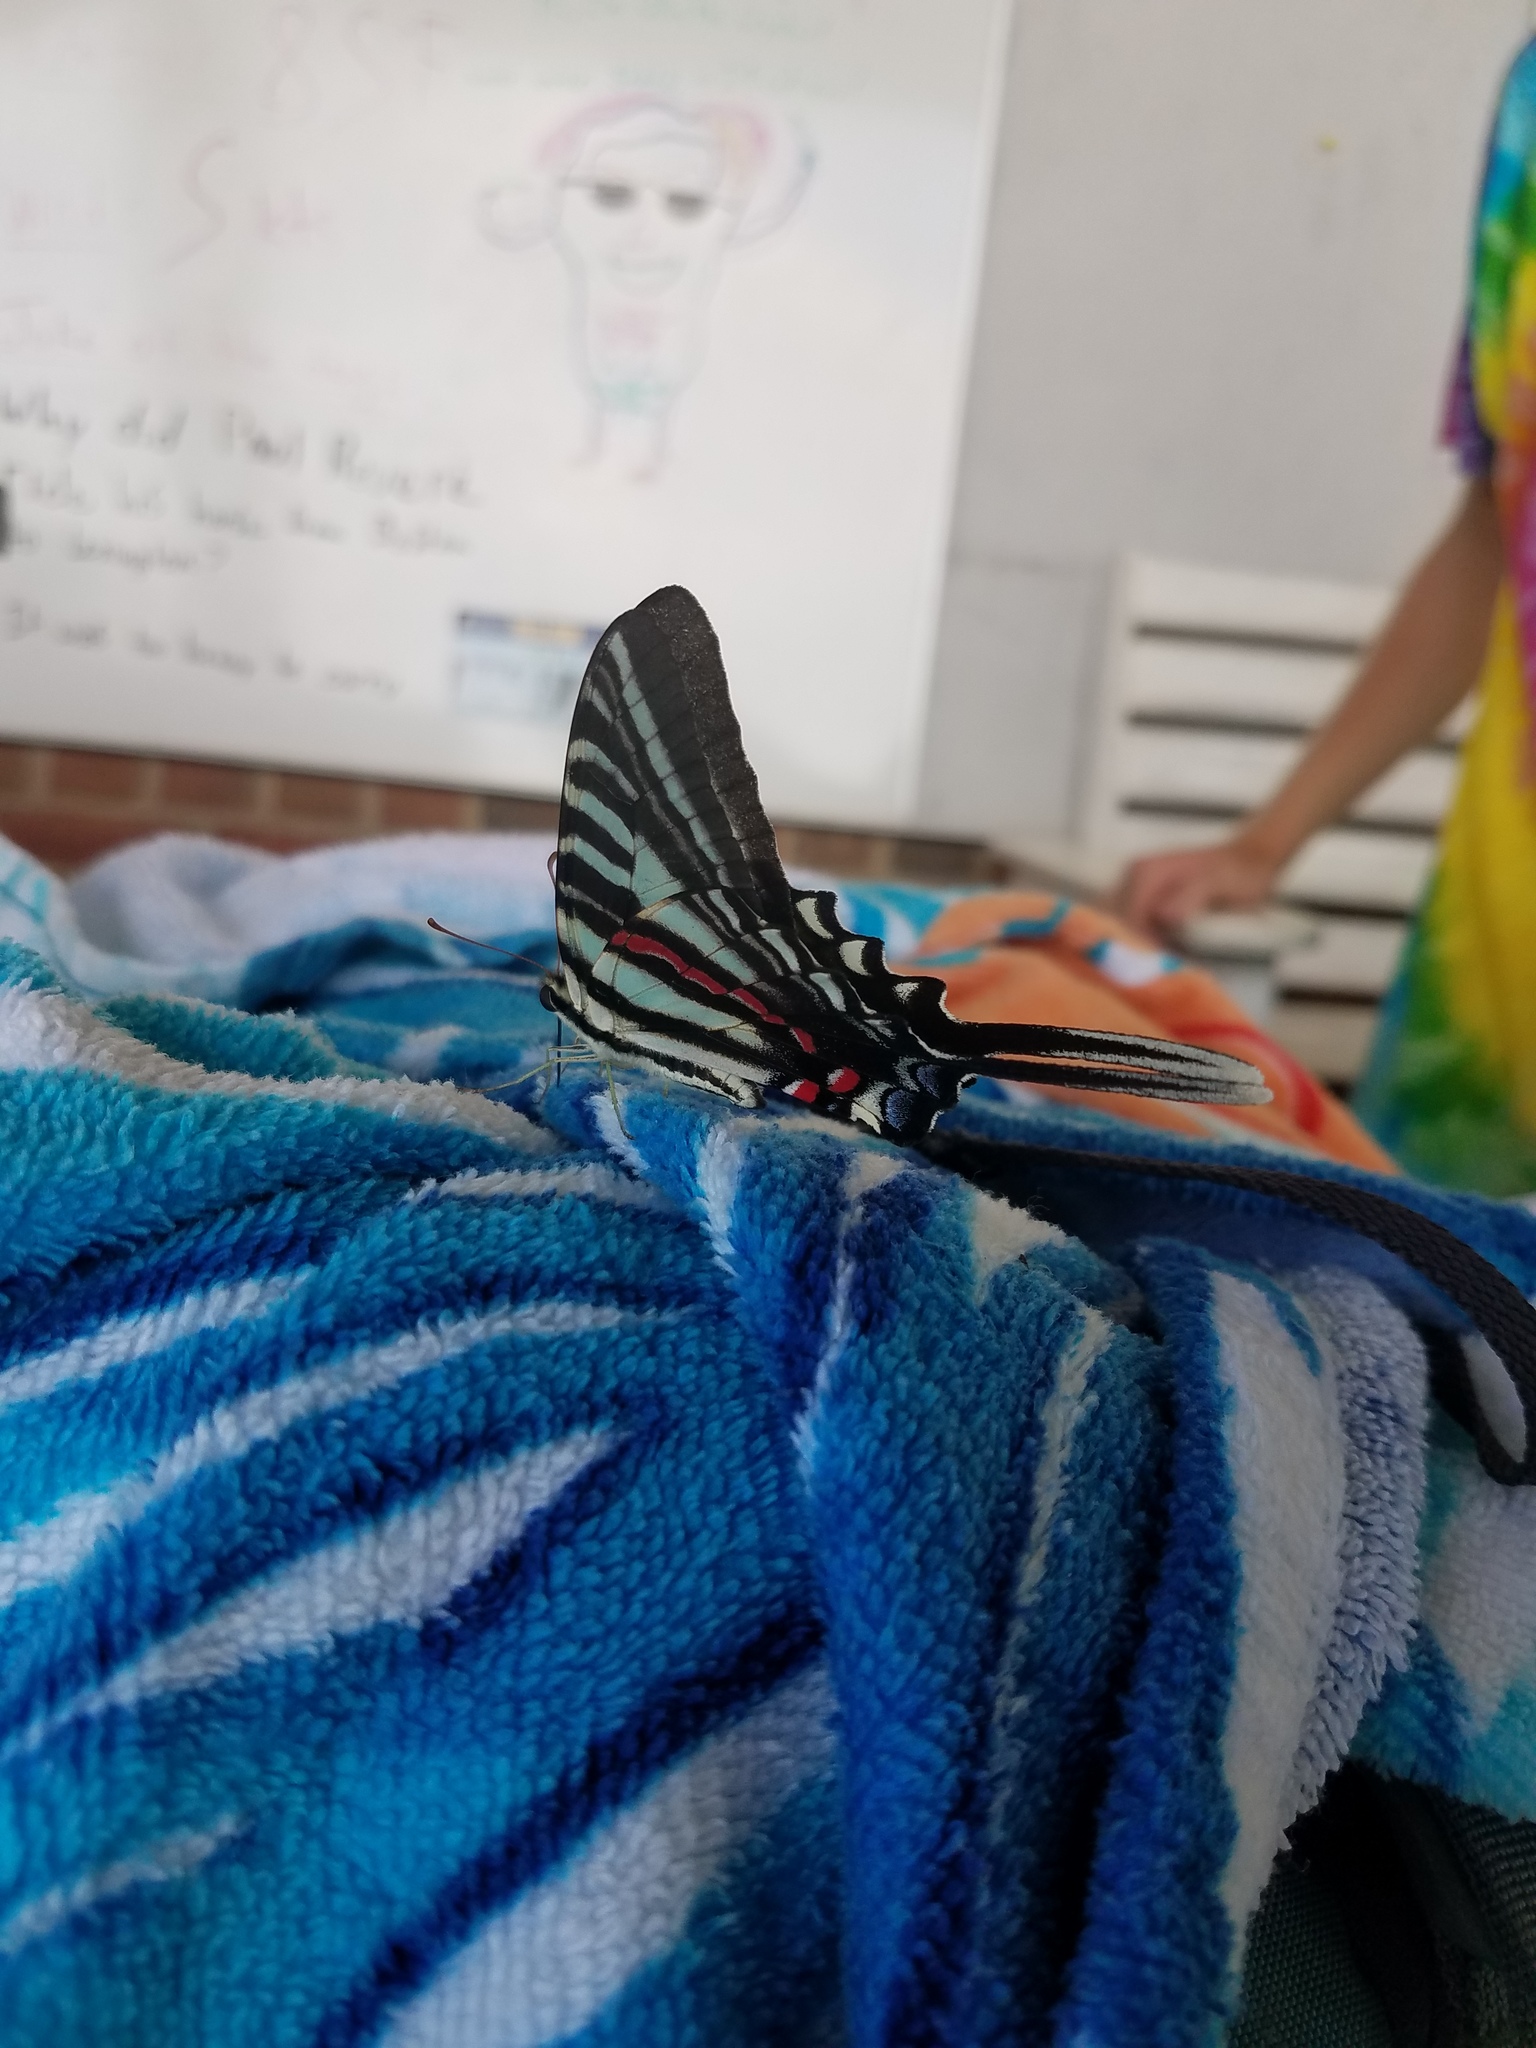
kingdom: Animalia
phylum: Arthropoda
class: Insecta
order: Lepidoptera
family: Papilionidae
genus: Protographium
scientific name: Protographium marcellus
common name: Zebra swallowtail
